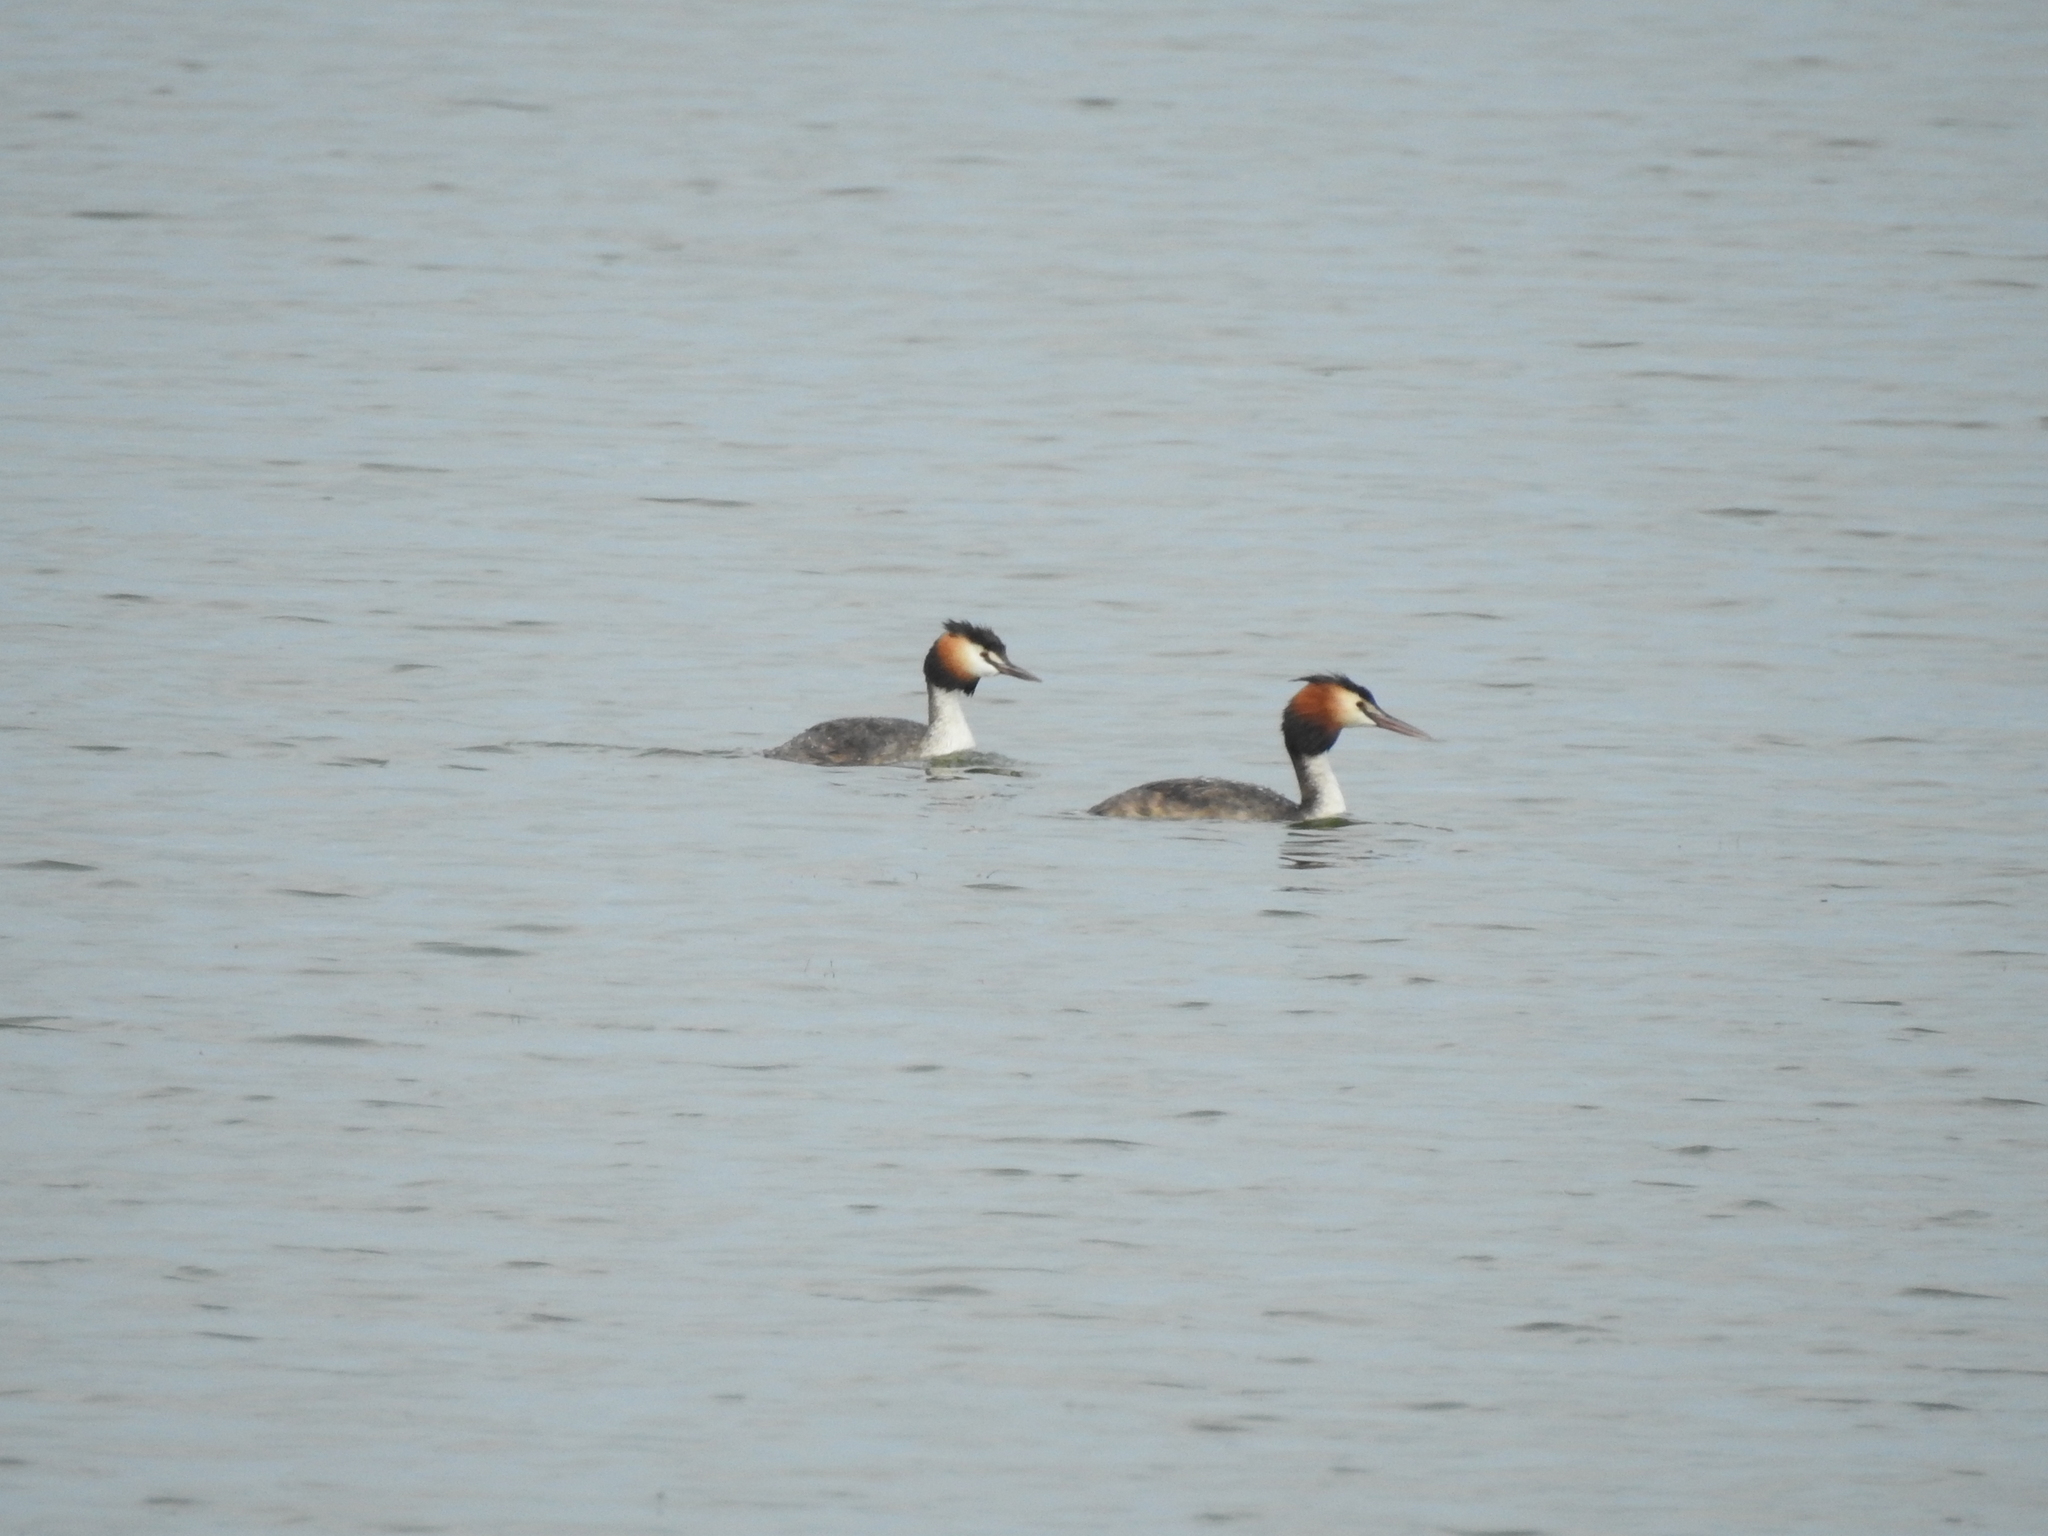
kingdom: Animalia
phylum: Chordata
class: Aves
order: Podicipediformes
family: Podicipedidae
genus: Podiceps
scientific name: Podiceps cristatus
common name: Great crested grebe
